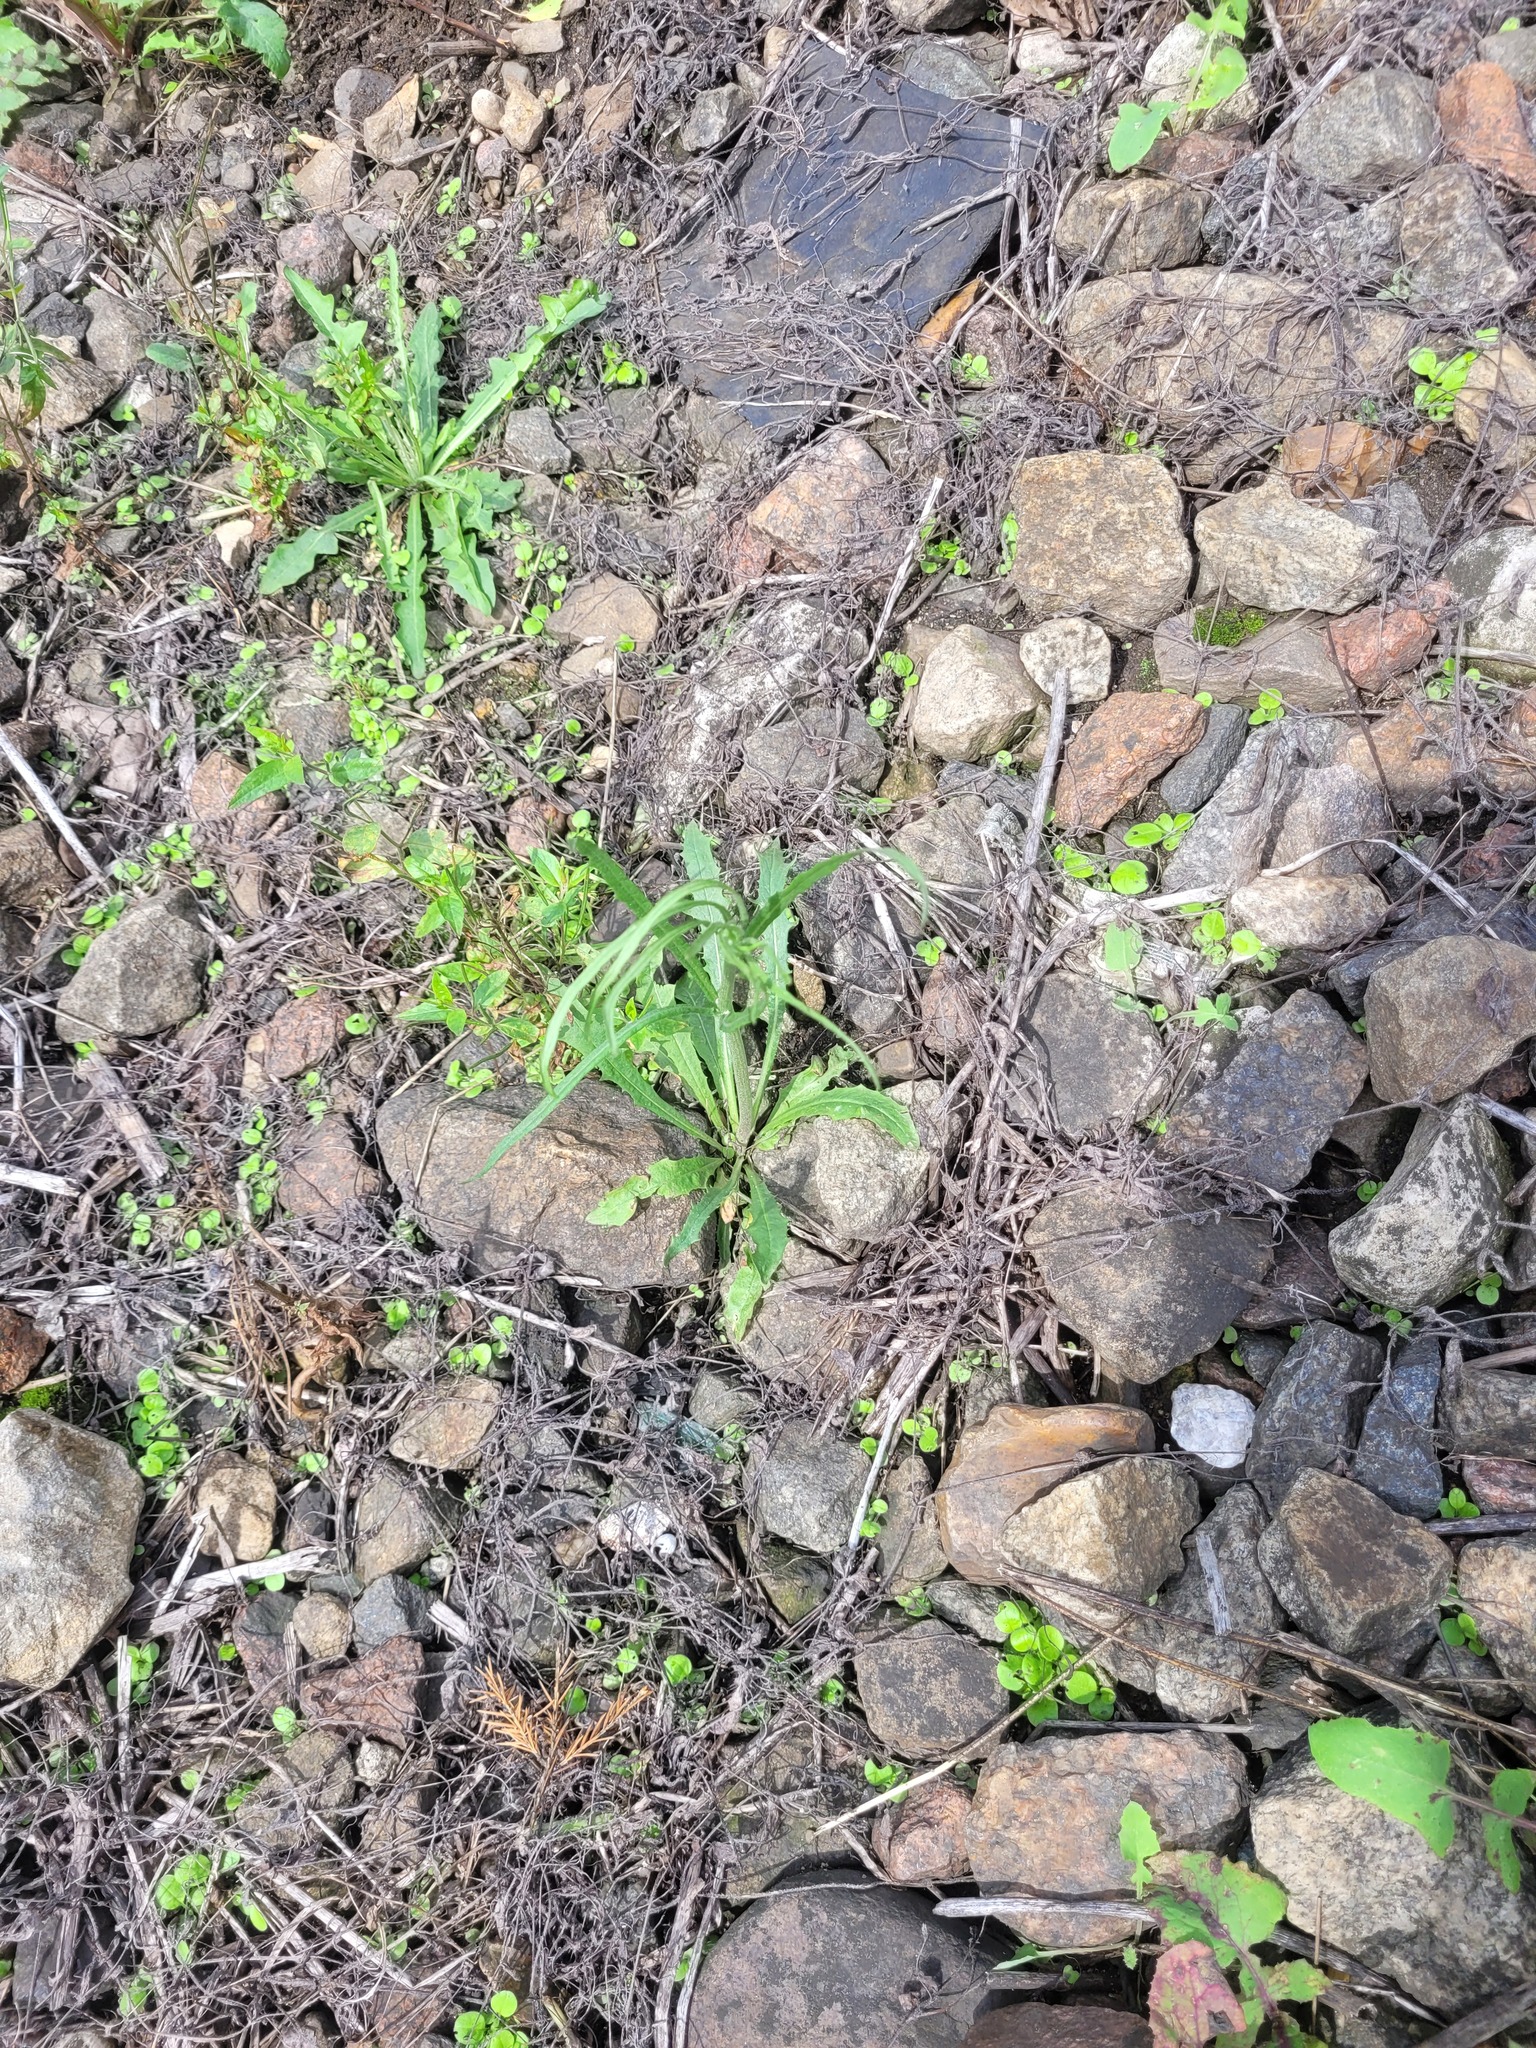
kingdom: Plantae
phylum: Tracheophyta
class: Magnoliopsida
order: Asterales
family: Asteraceae
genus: Crepis
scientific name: Crepis tectorum
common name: Narrow-leaved hawk's-beard
